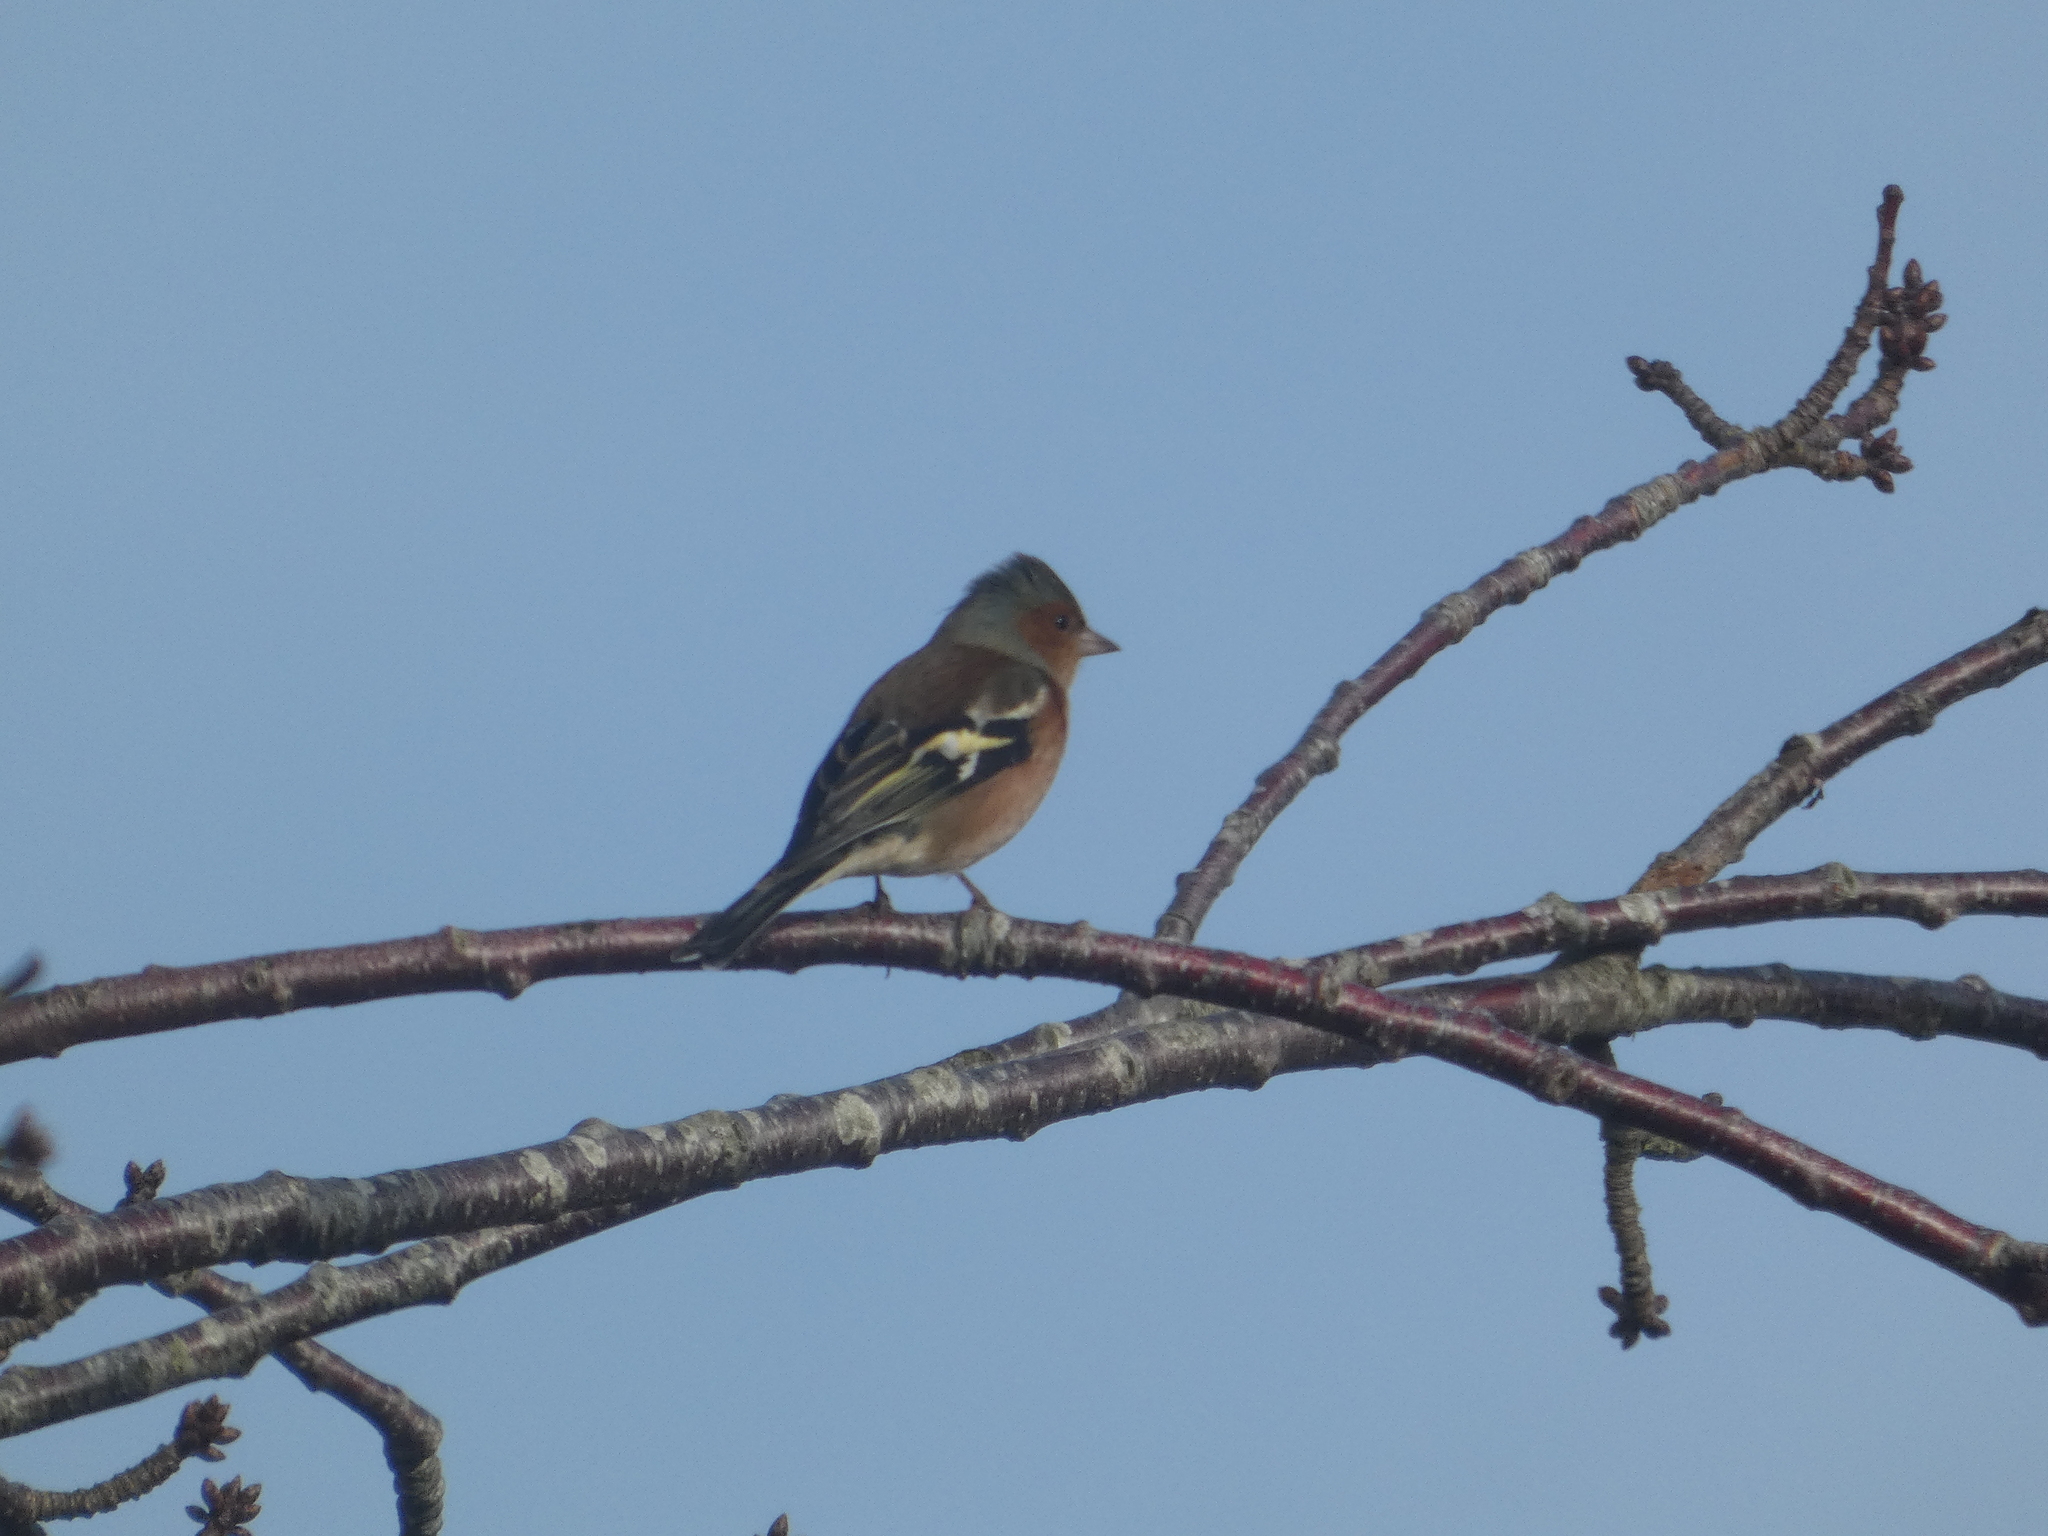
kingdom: Animalia
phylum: Chordata
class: Aves
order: Passeriformes
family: Fringillidae
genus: Fringilla
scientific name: Fringilla coelebs
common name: Common chaffinch
